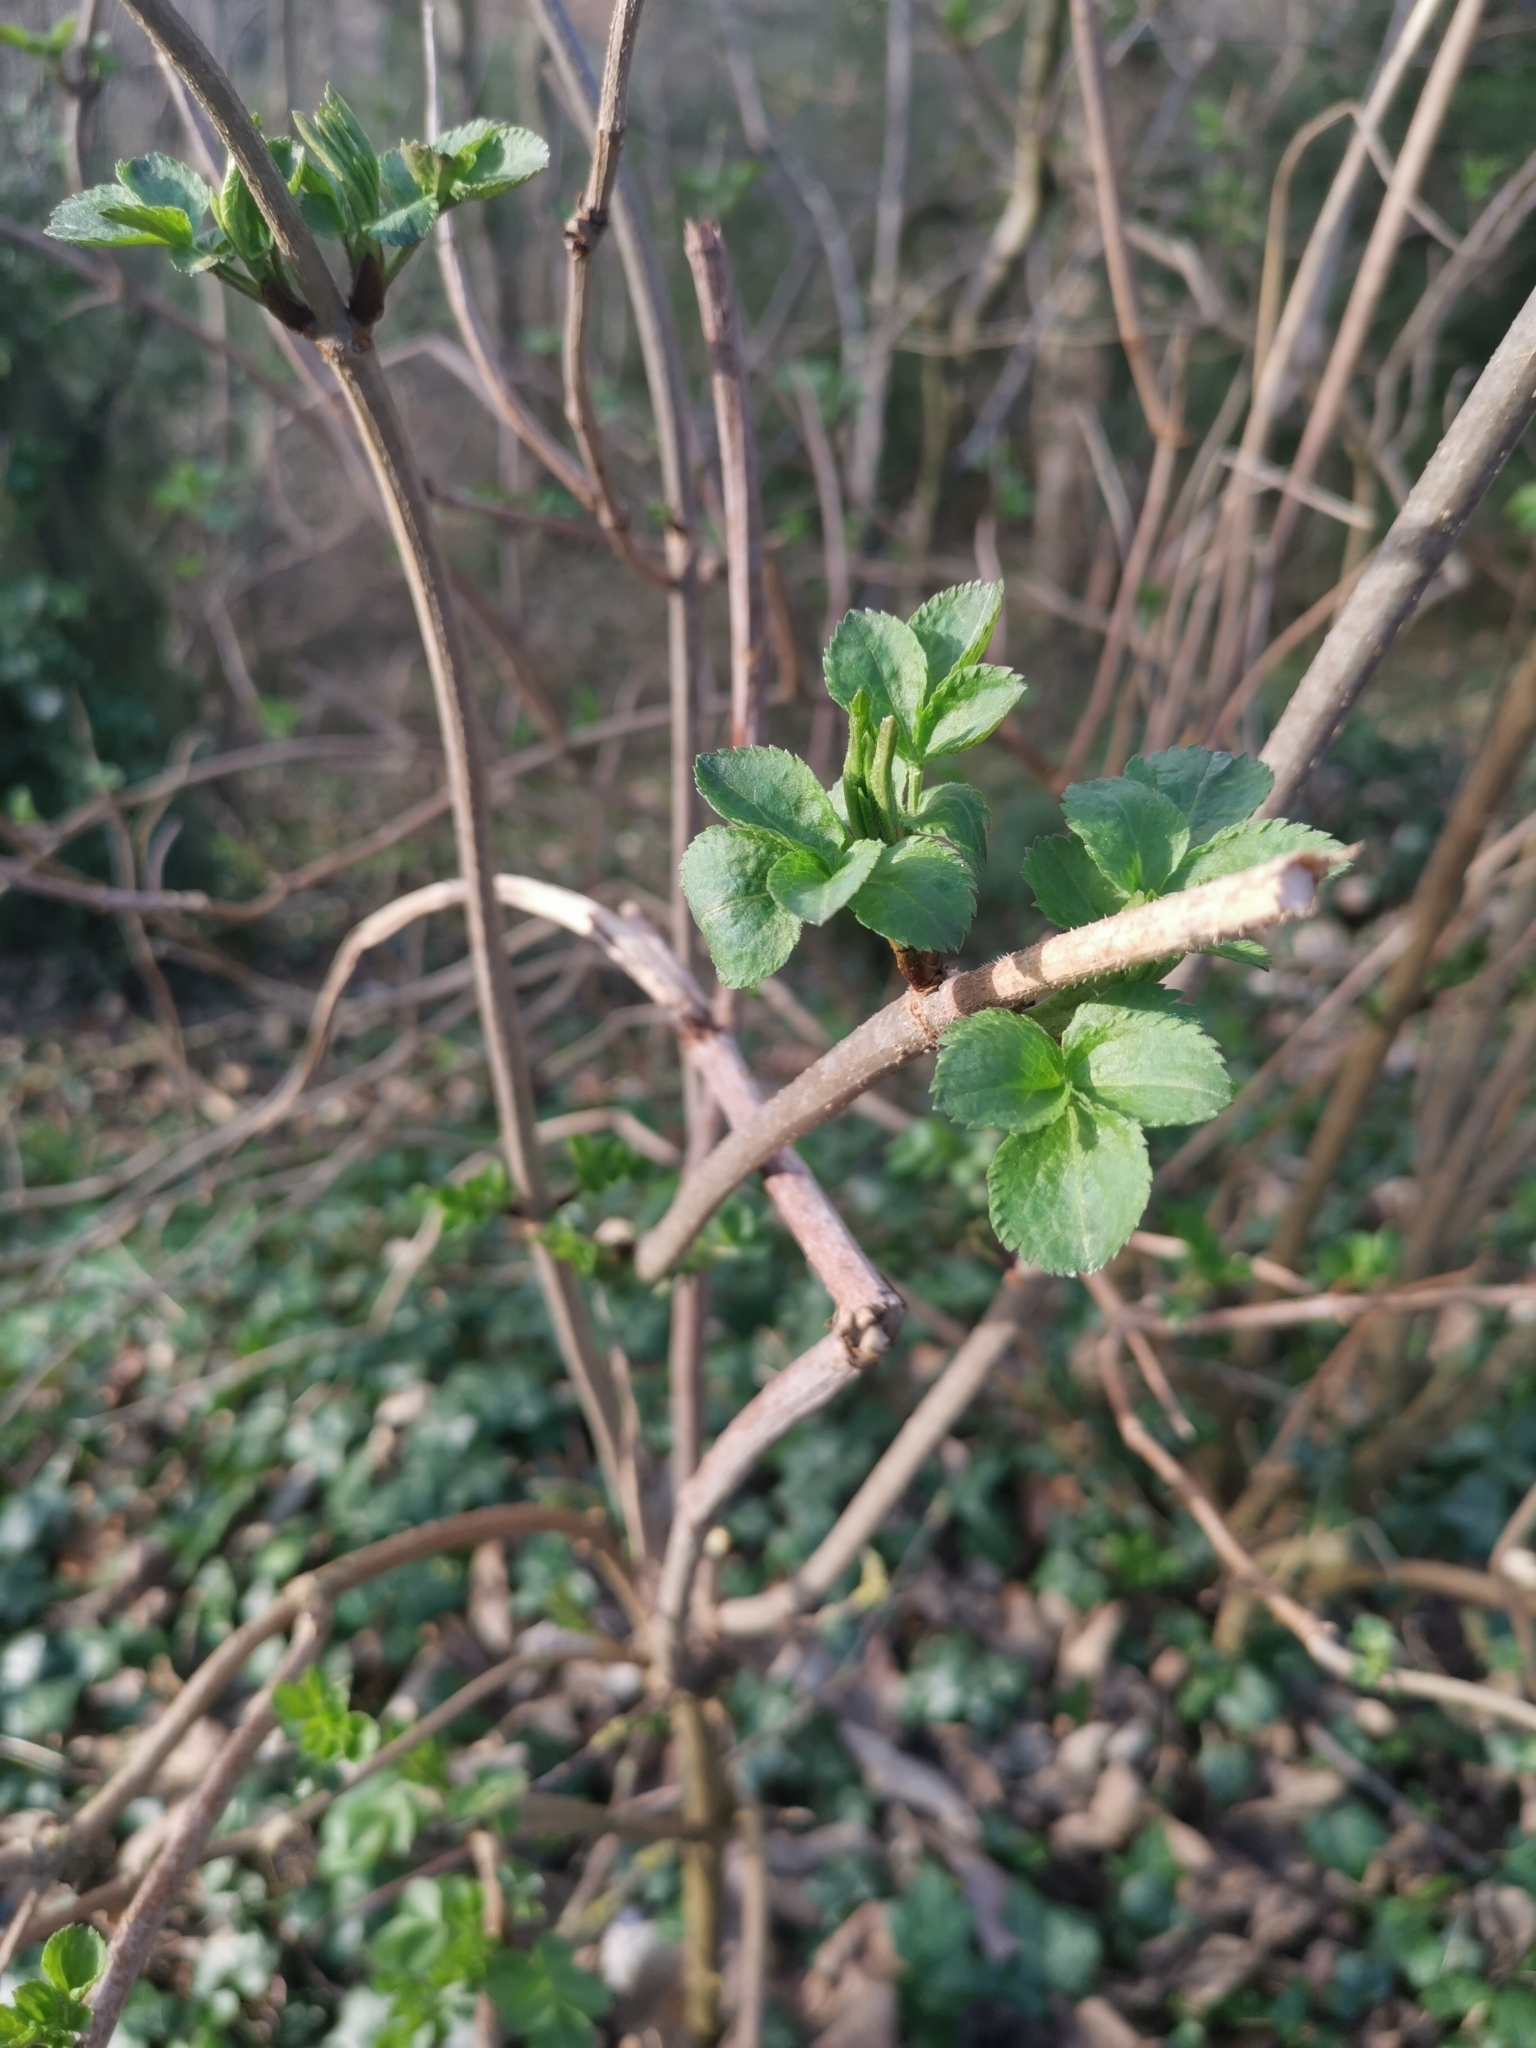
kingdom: Plantae
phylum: Tracheophyta
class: Magnoliopsida
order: Dipsacales
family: Viburnaceae
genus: Sambucus
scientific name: Sambucus nigra
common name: Elder
